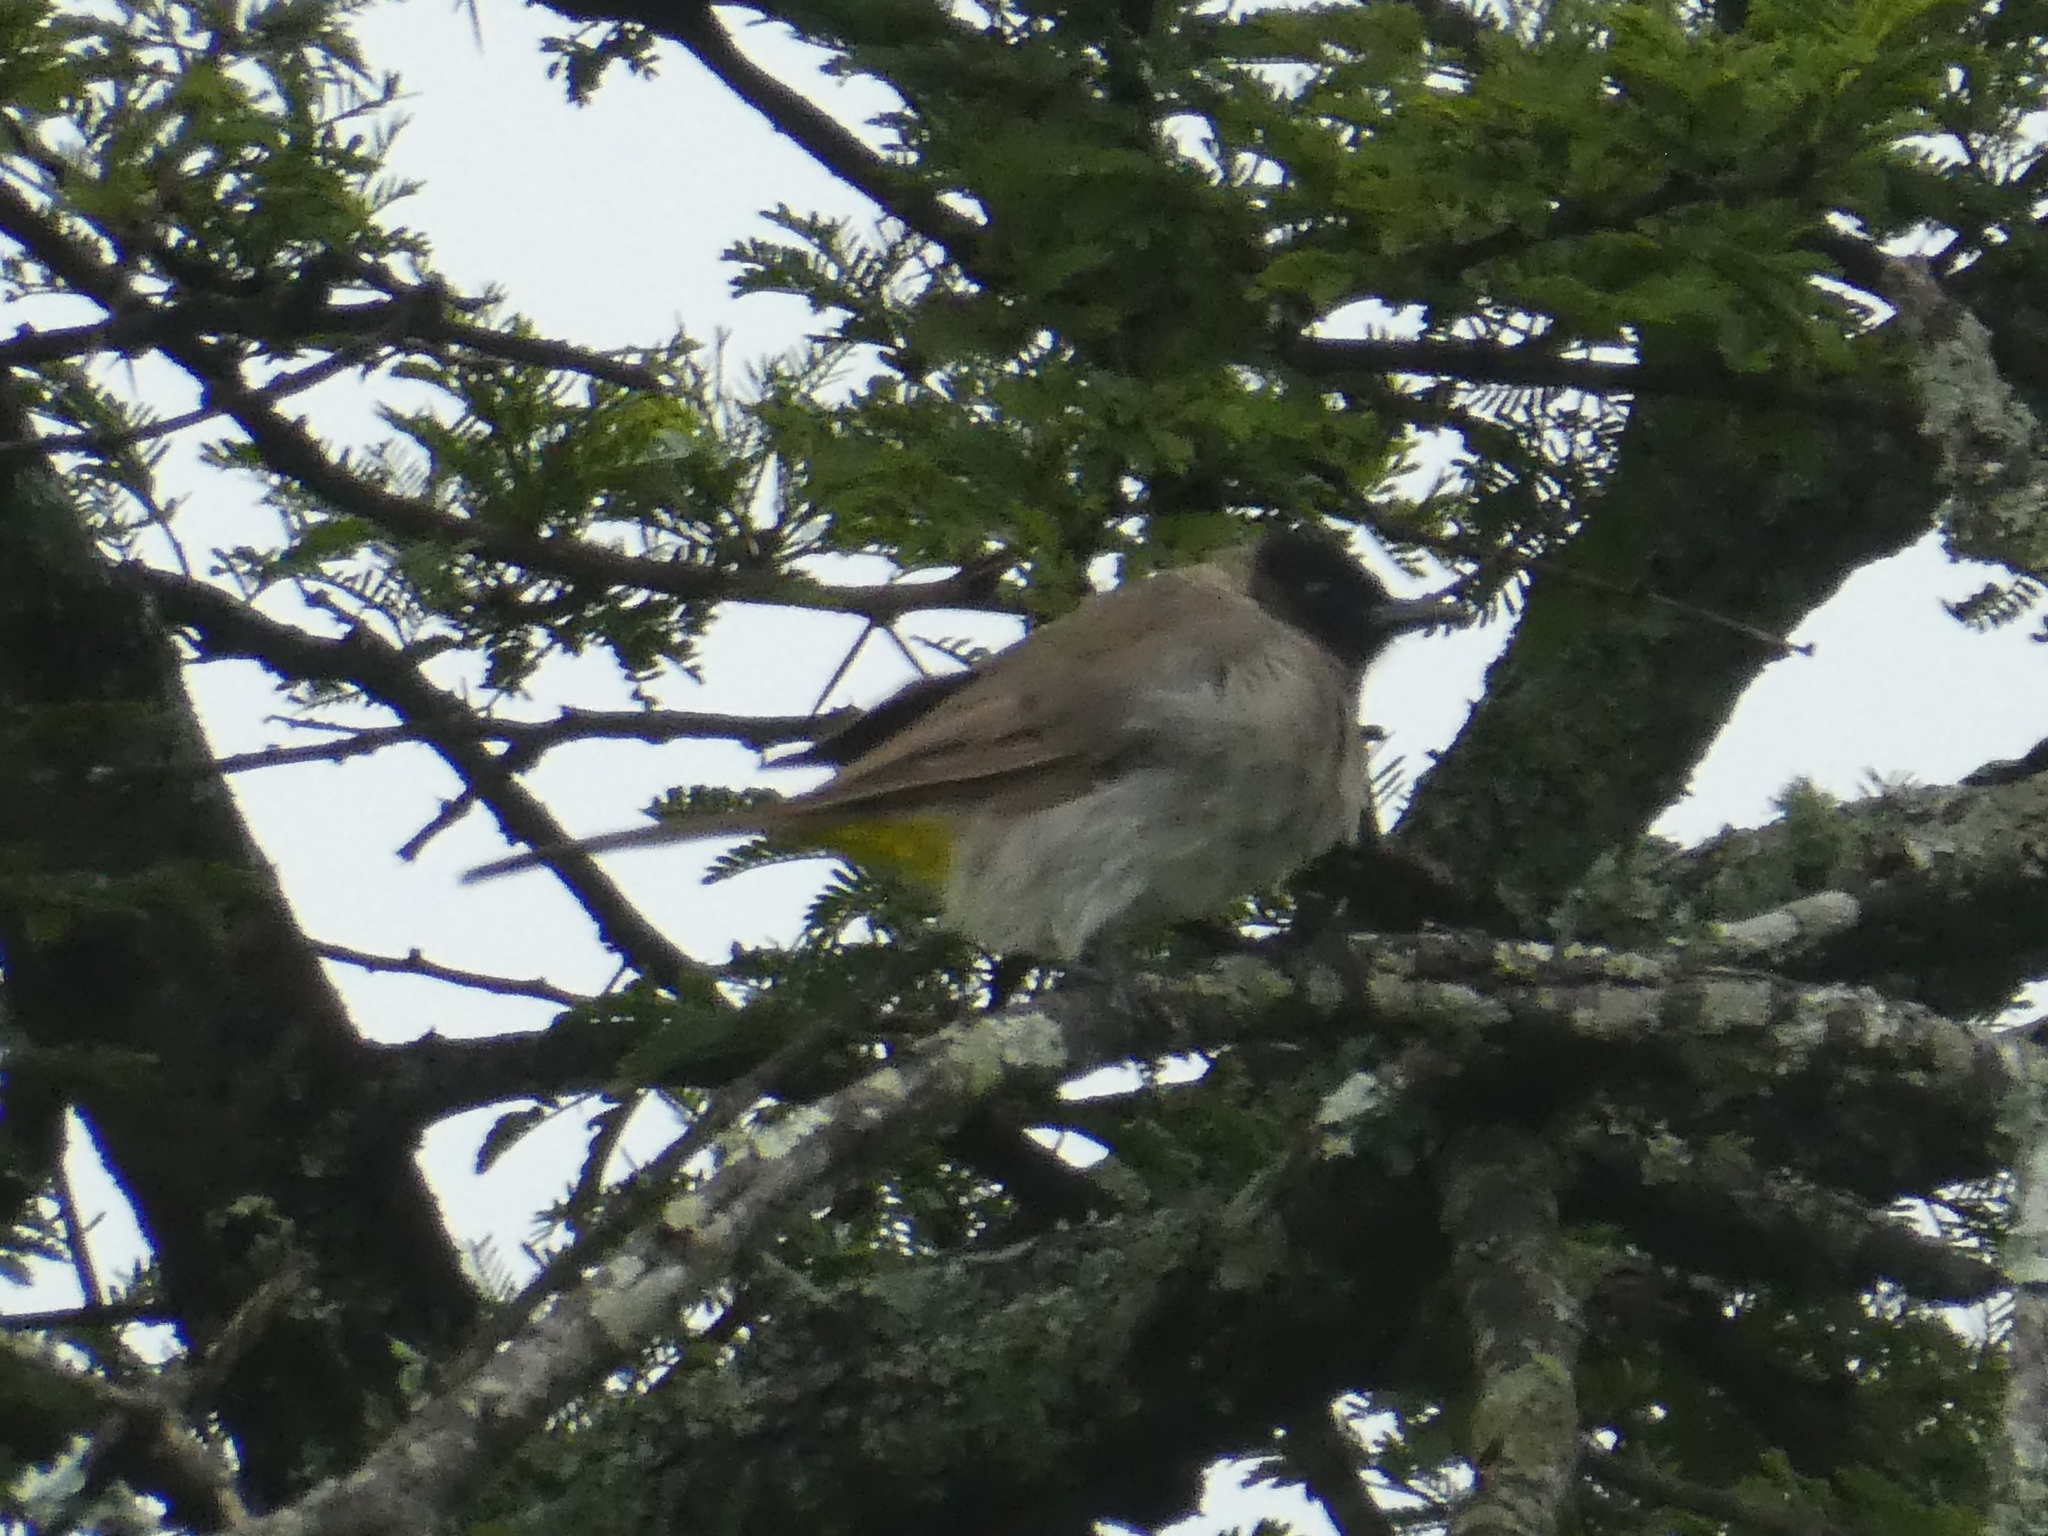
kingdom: Animalia
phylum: Chordata
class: Aves
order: Passeriformes
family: Pycnonotidae
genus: Pycnonotus
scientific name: Pycnonotus barbatus
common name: Common bulbul
